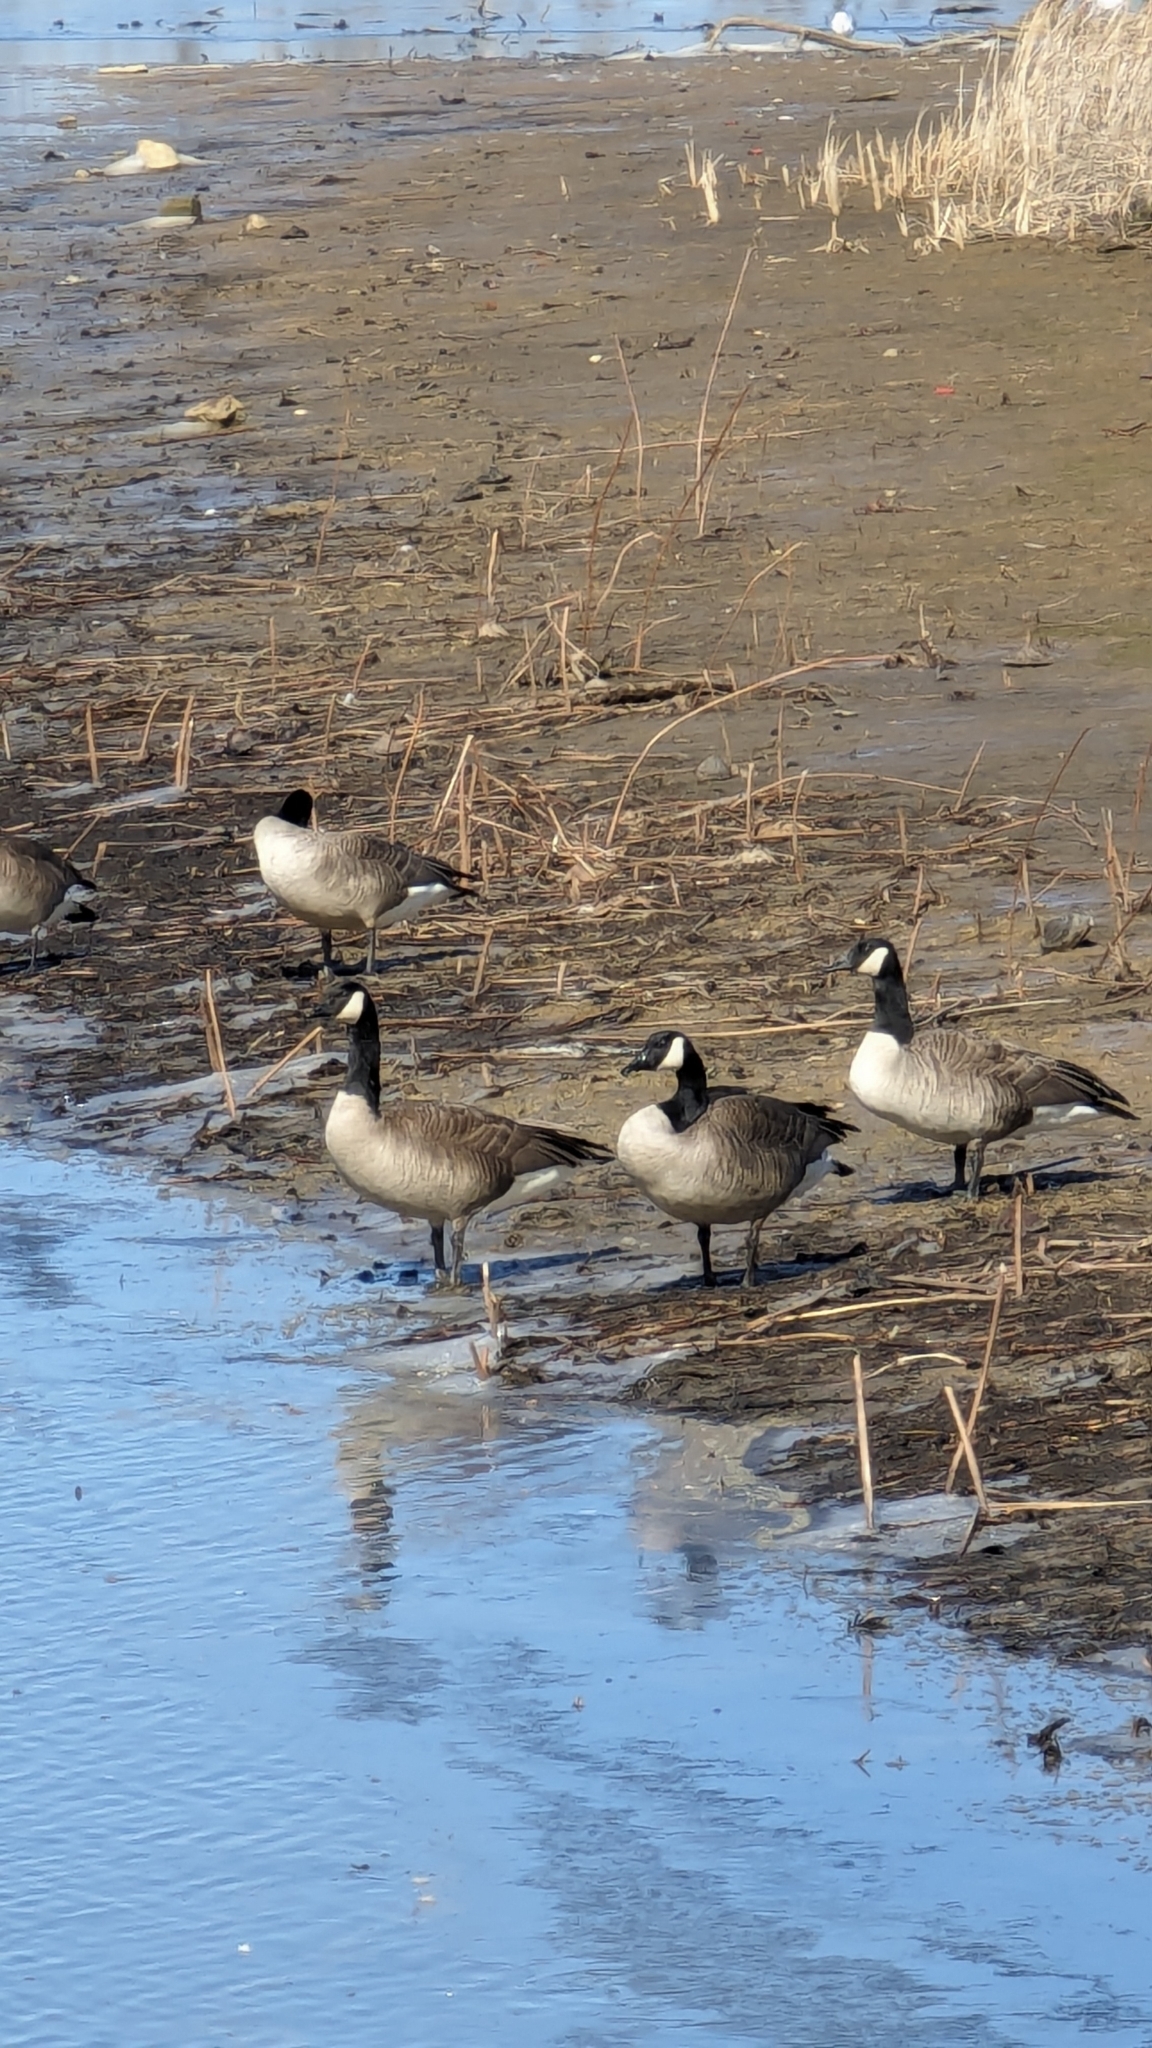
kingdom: Animalia
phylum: Chordata
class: Aves
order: Anseriformes
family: Anatidae
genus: Branta
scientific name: Branta canadensis
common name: Canada goose
